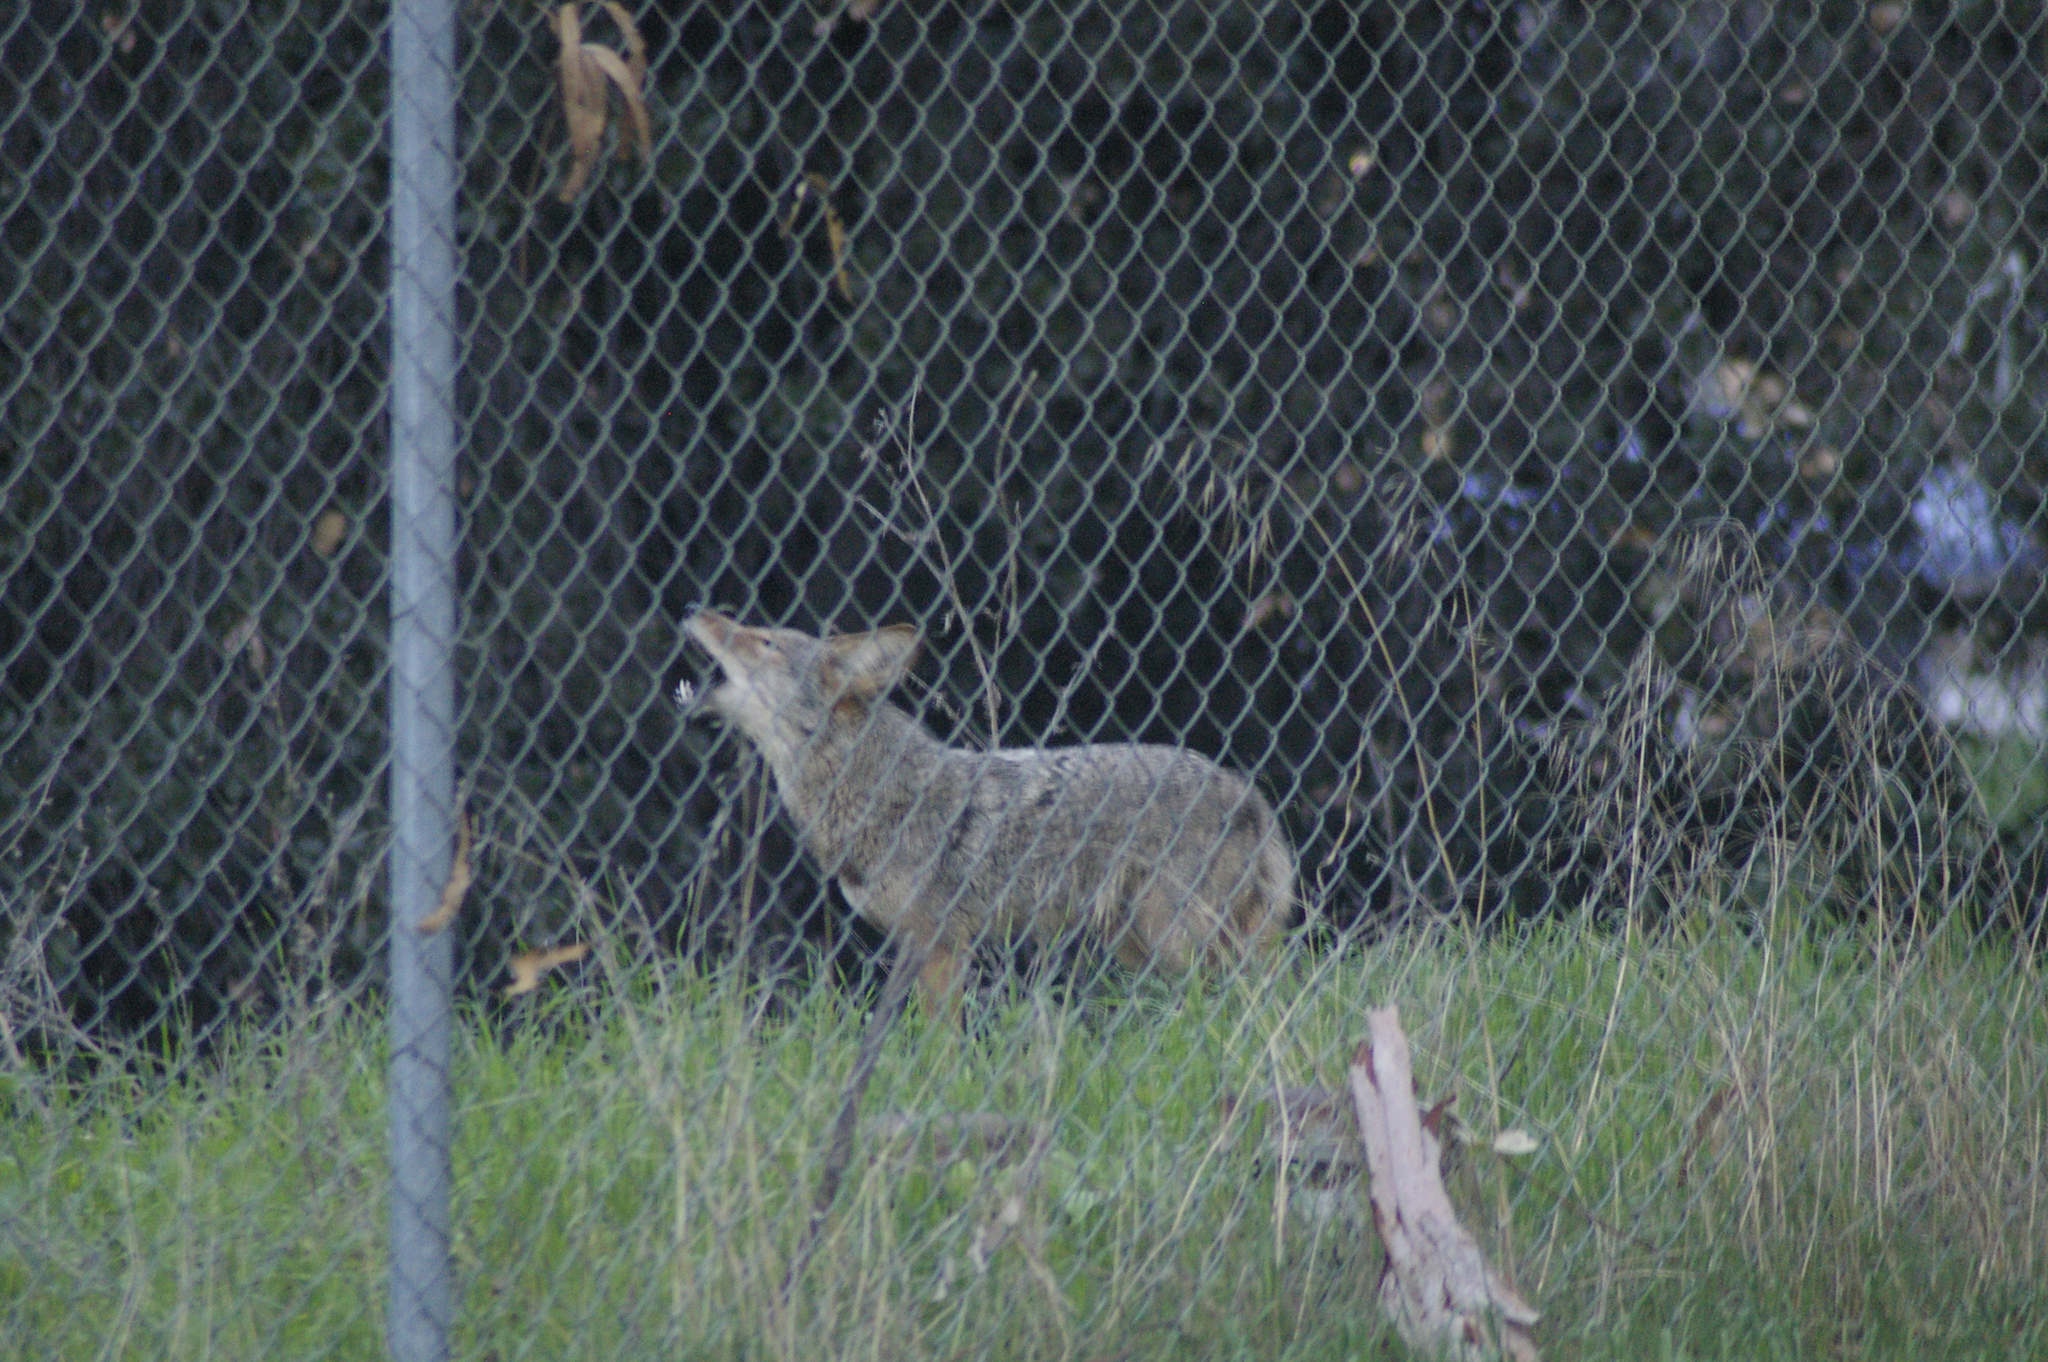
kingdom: Animalia
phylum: Chordata
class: Mammalia
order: Carnivora
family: Canidae
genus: Canis
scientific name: Canis latrans
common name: Coyote
